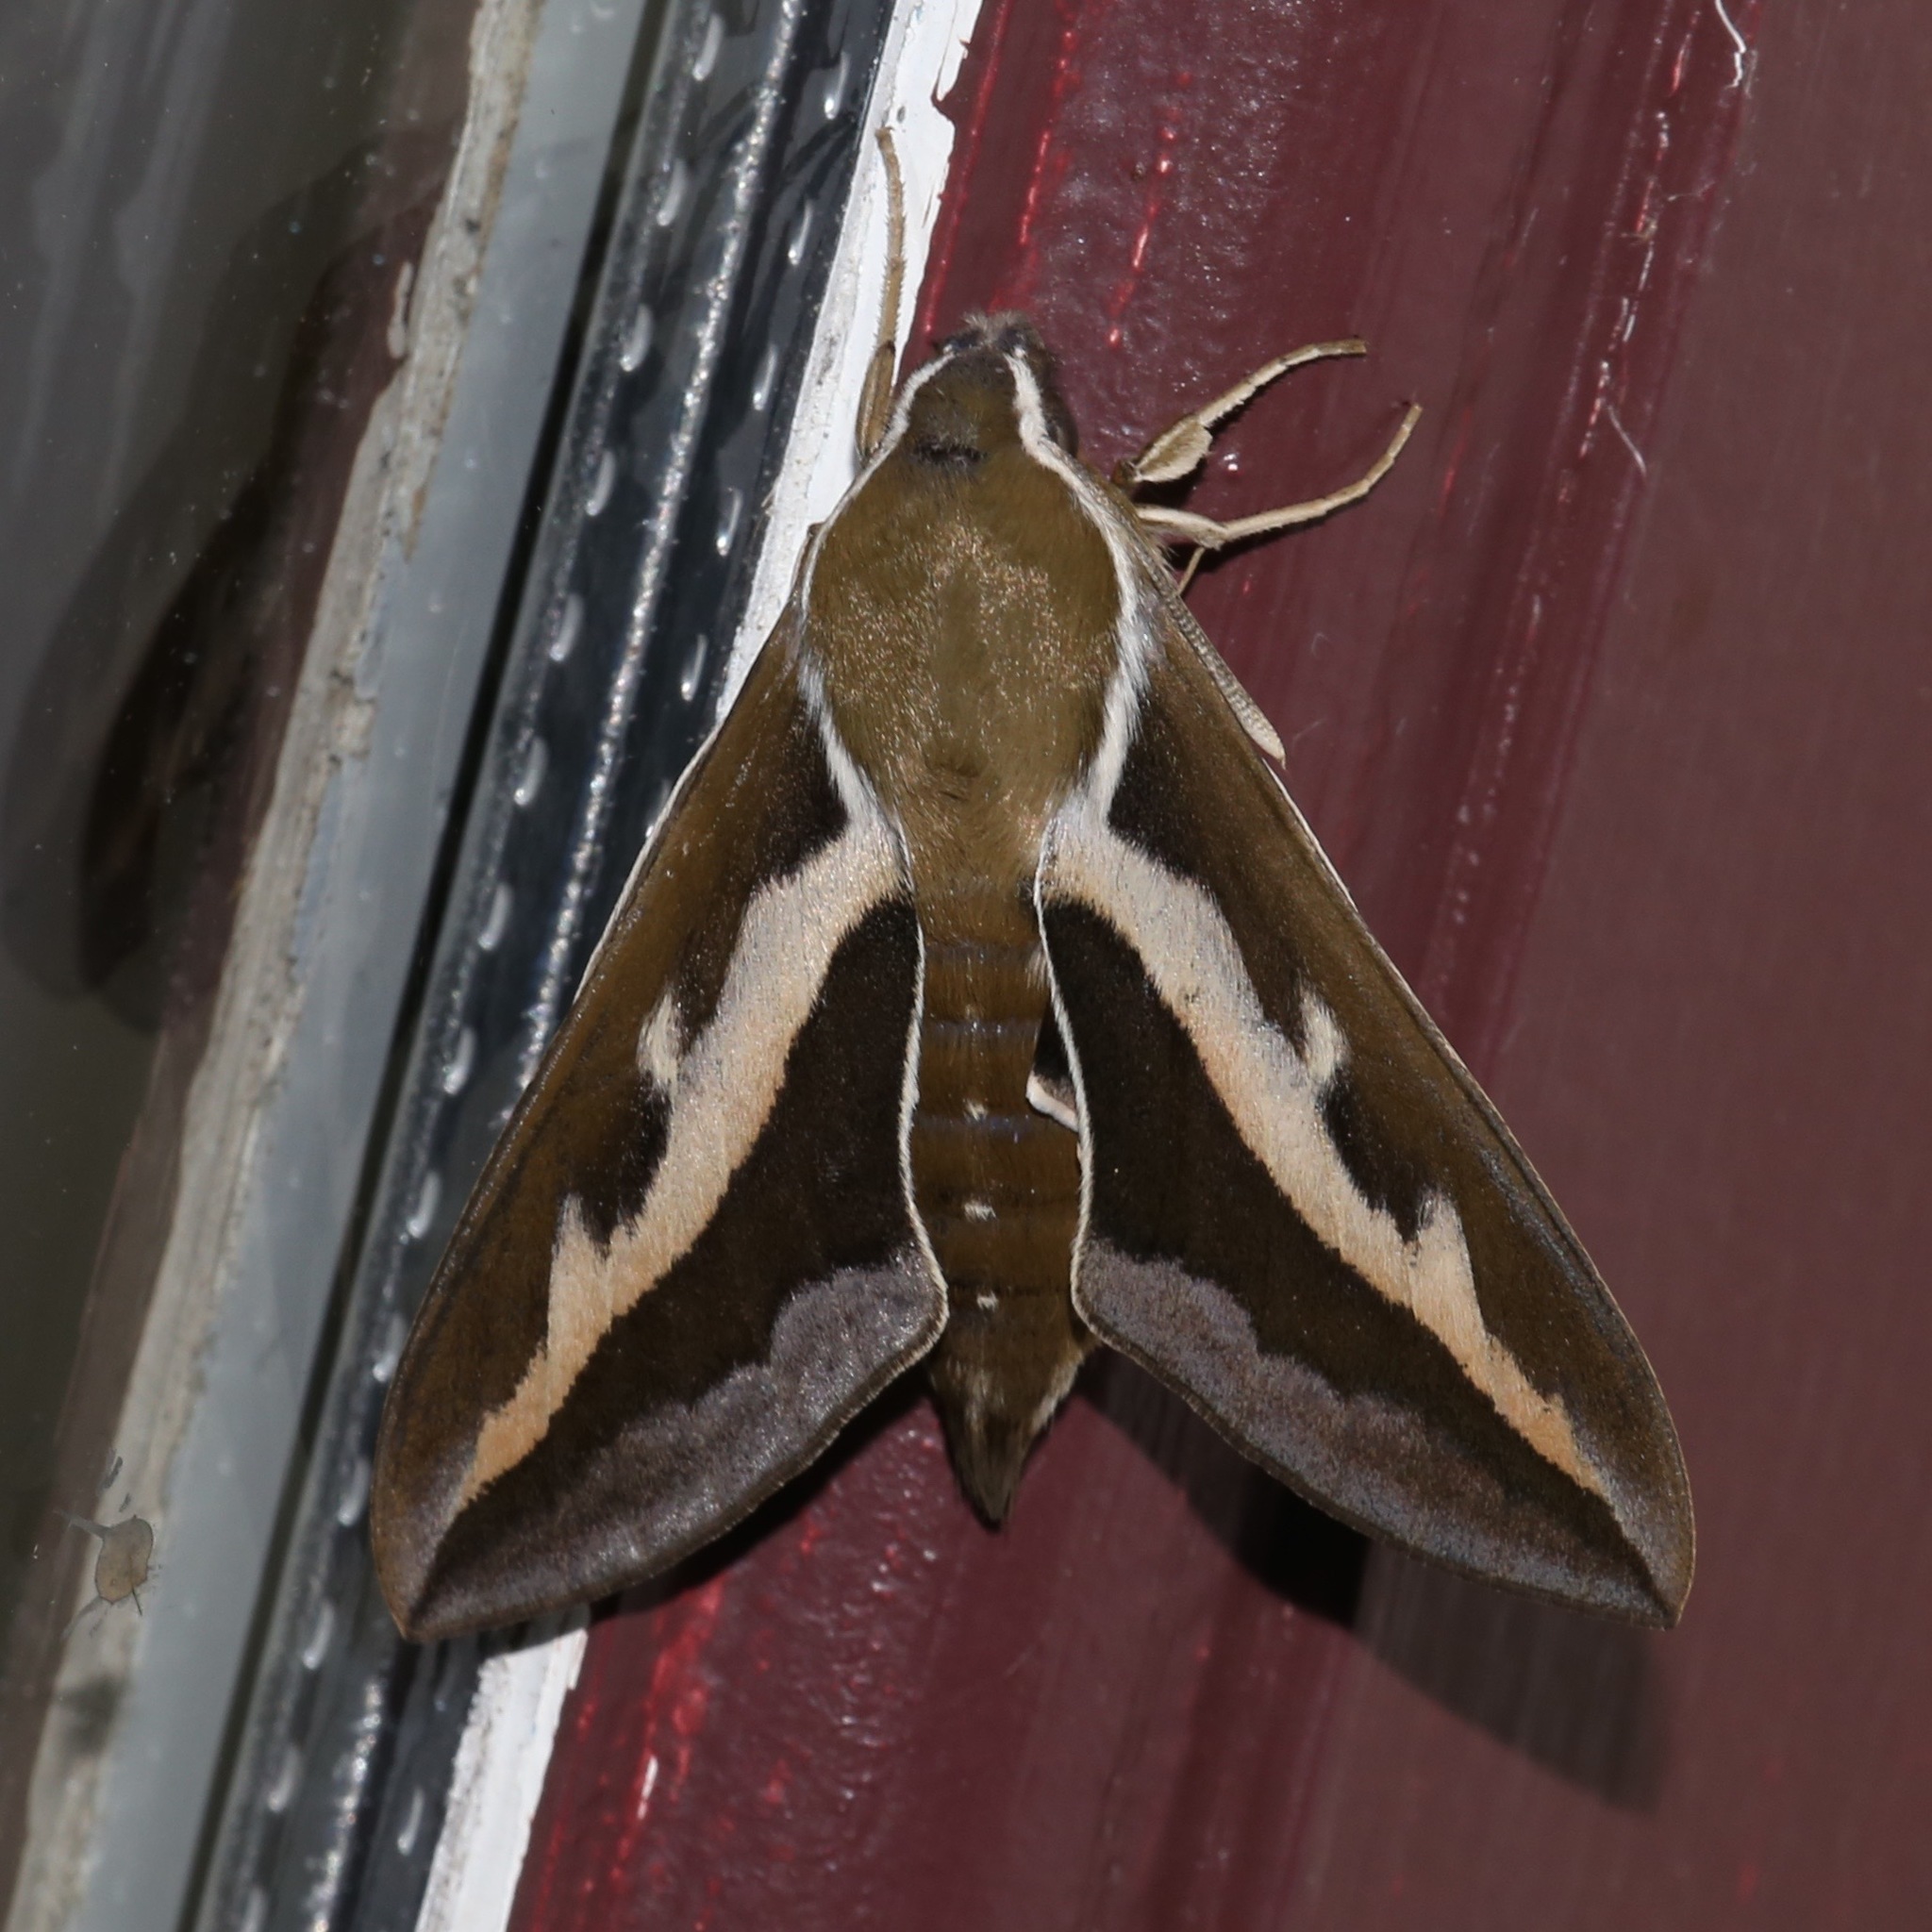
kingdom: Animalia
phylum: Arthropoda
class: Insecta
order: Lepidoptera
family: Sphingidae
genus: Hyles
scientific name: Hyles gallii
